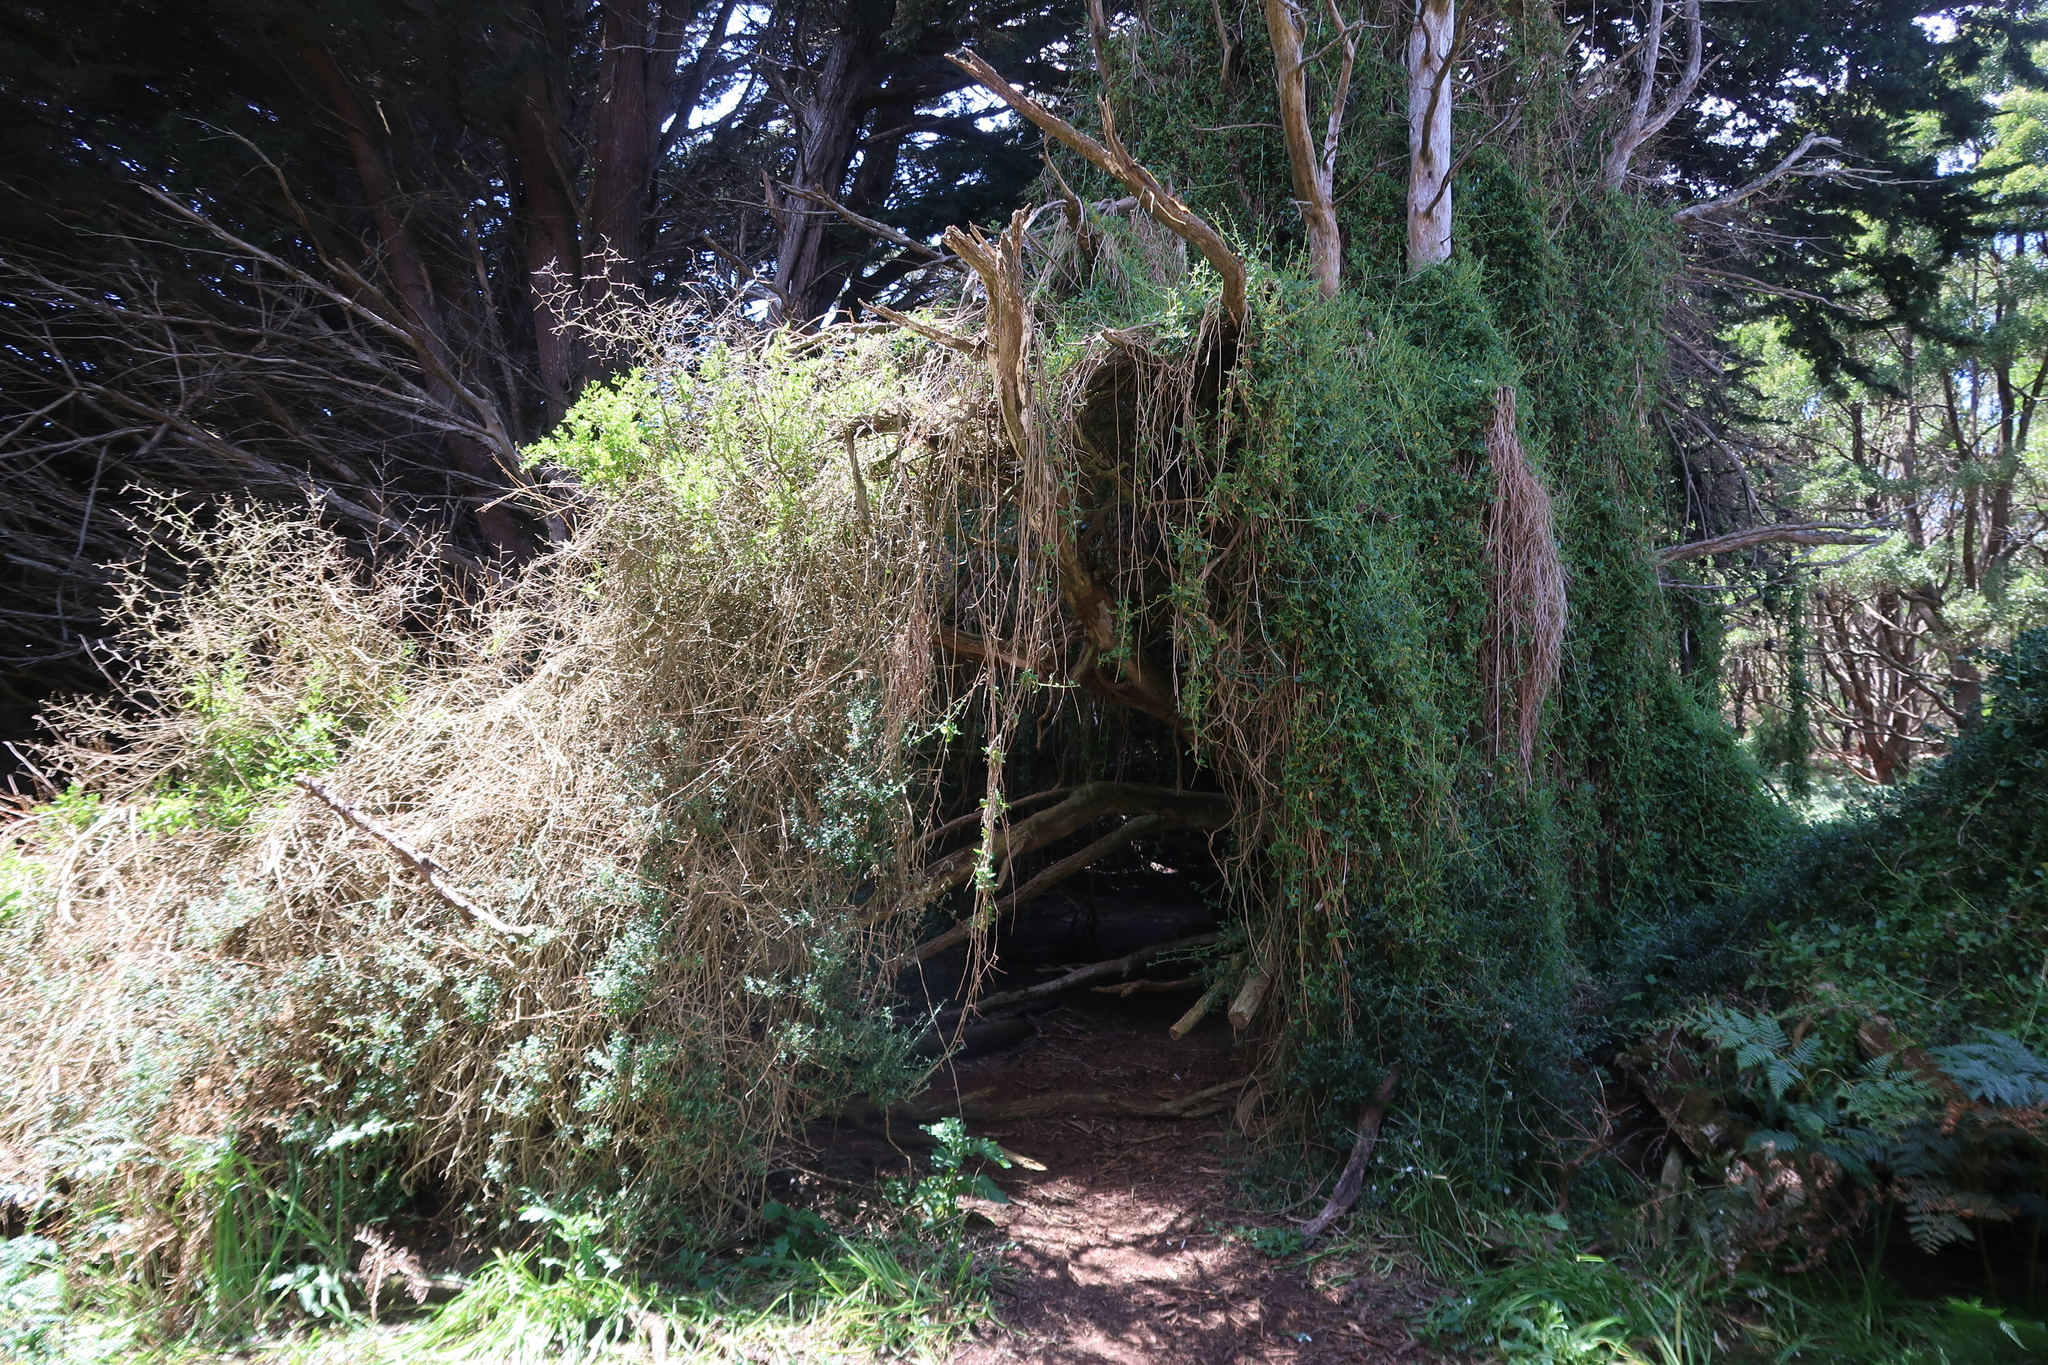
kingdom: Plantae
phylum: Tracheophyta
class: Magnoliopsida
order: Caryophyllales
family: Aizoaceae
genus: Tetragonia
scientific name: Tetragonia implexicoma
